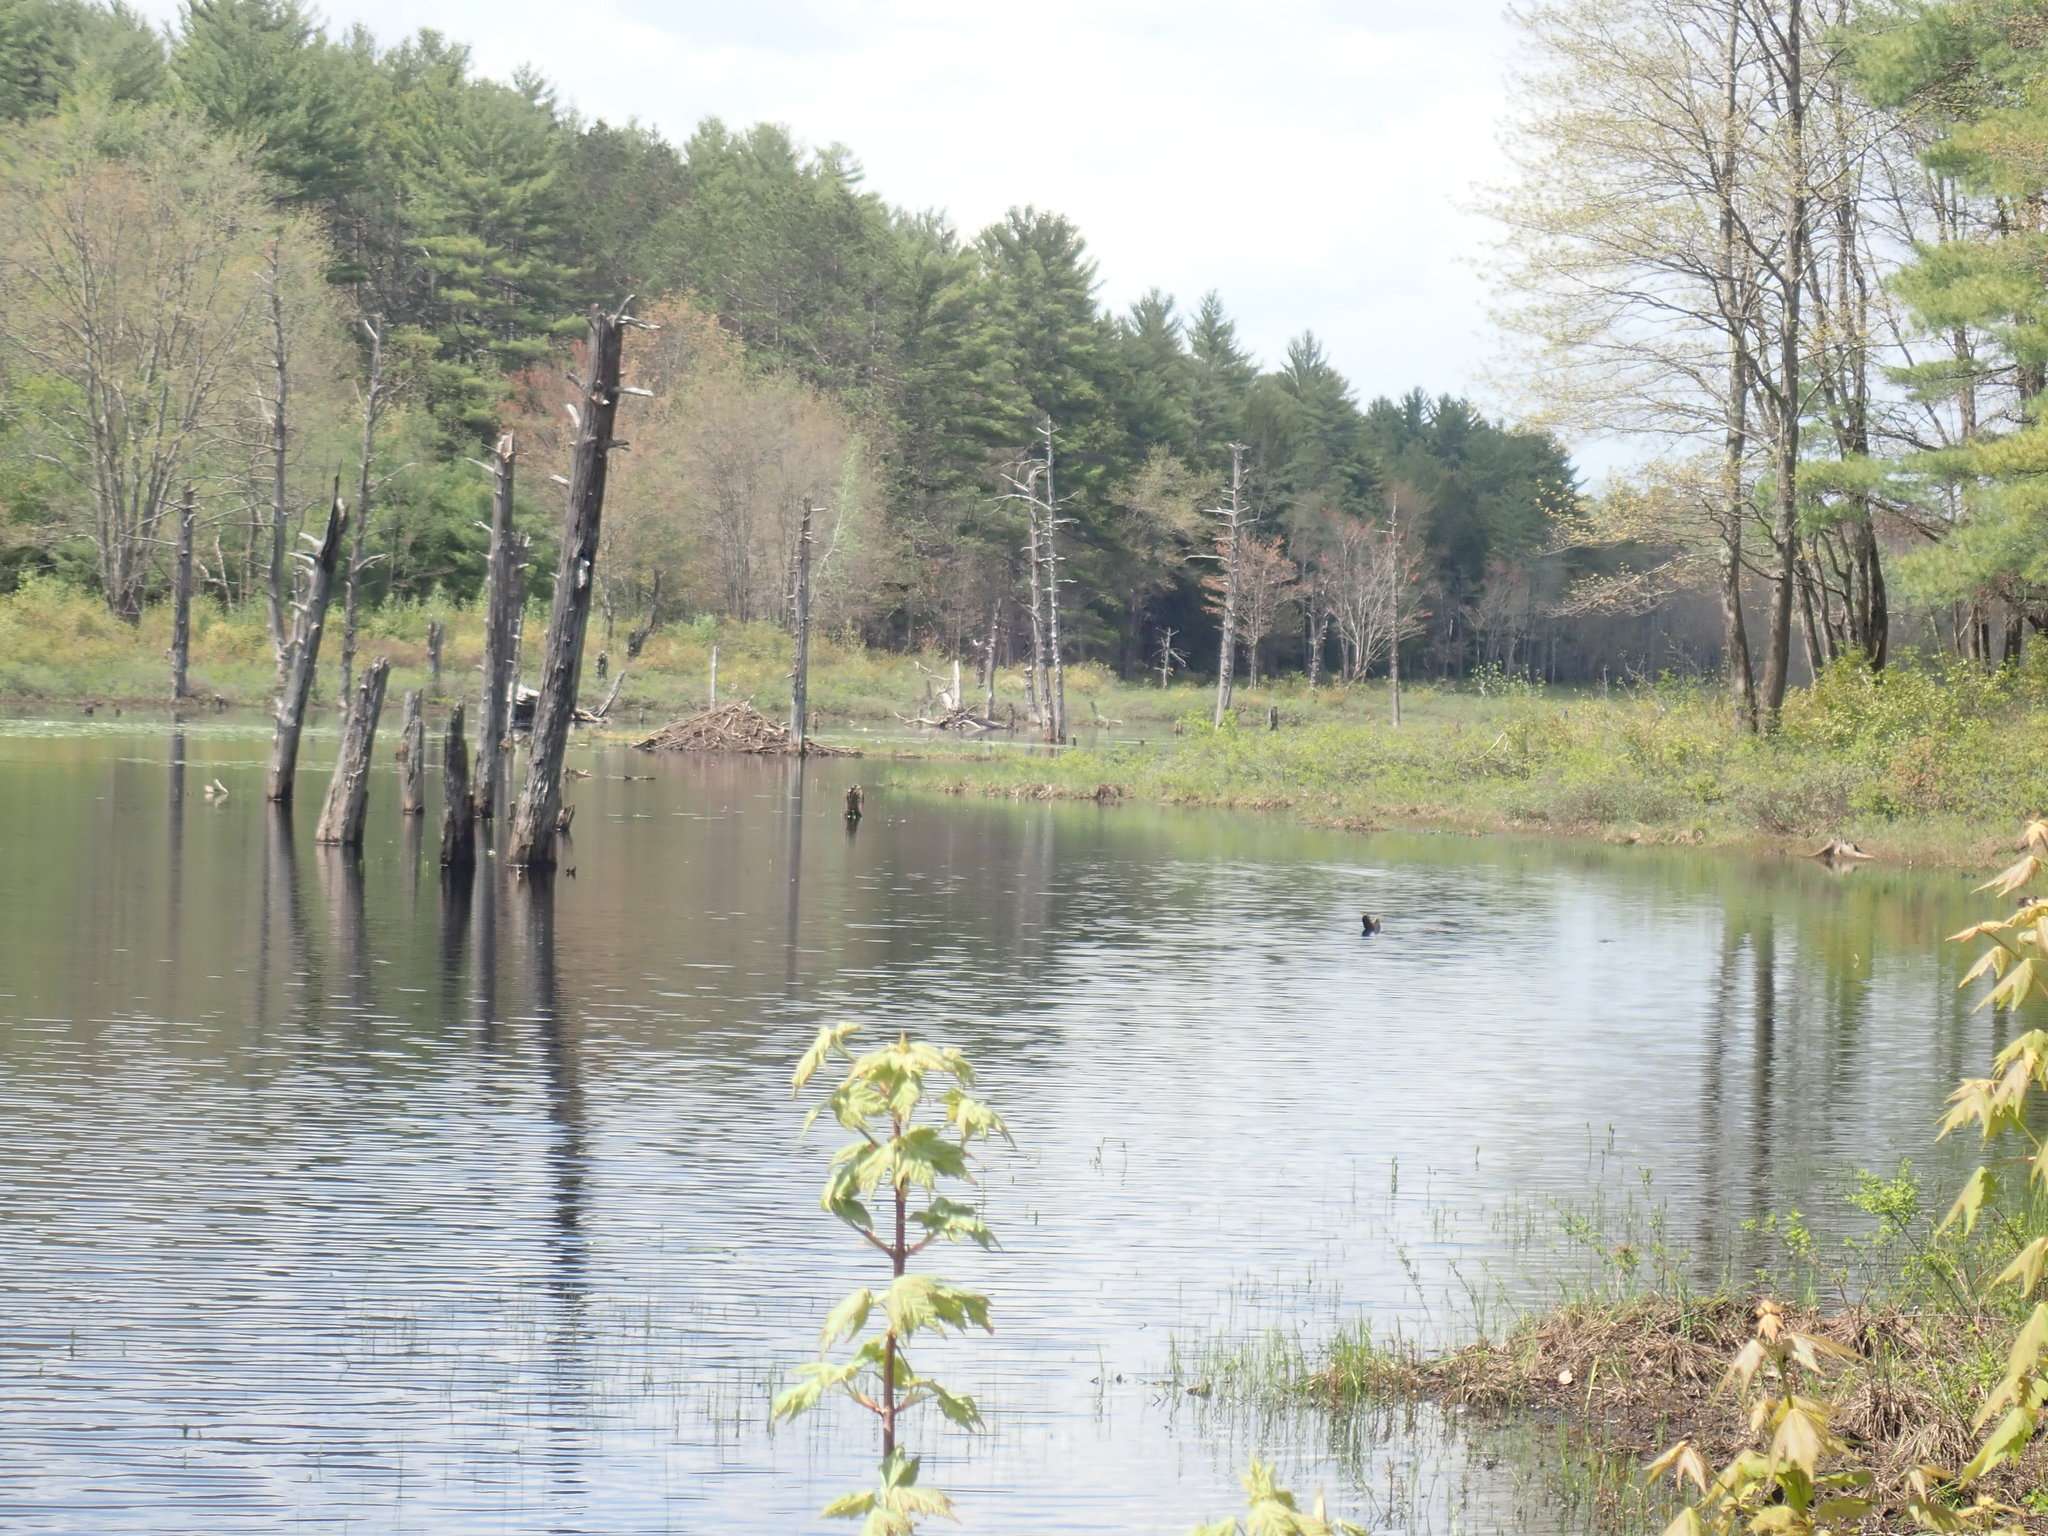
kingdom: Animalia
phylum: Chordata
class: Mammalia
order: Rodentia
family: Castoridae
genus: Castor
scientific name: Castor canadensis
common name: American beaver
